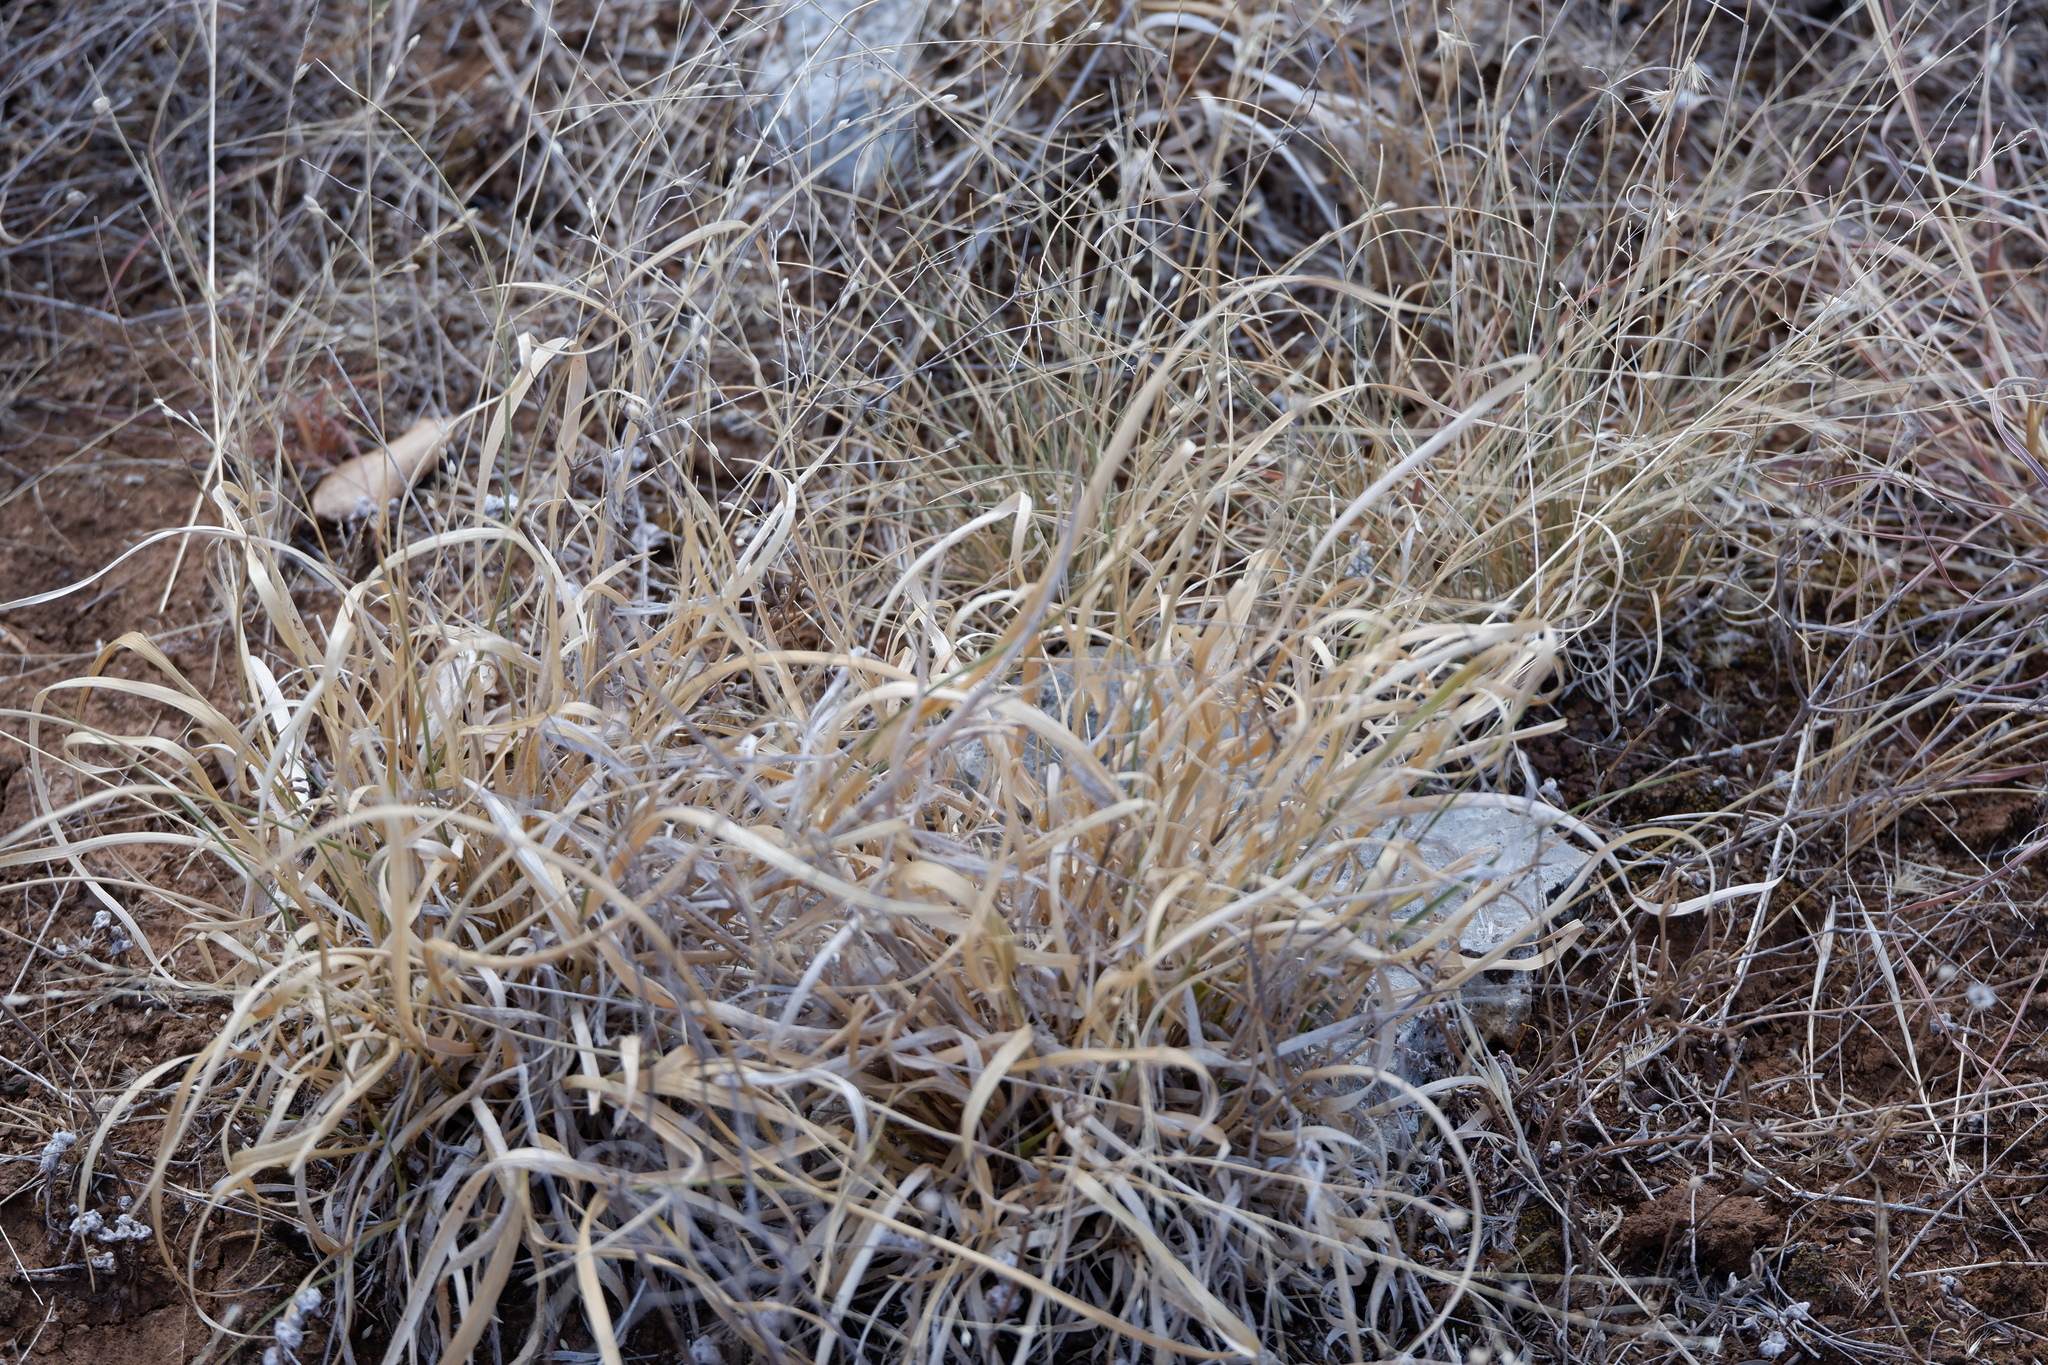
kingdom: Plantae
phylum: Tracheophyta
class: Liliopsida
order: Poales
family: Poaceae
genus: Panicum
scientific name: Panicum virgatum
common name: Switchgrass
